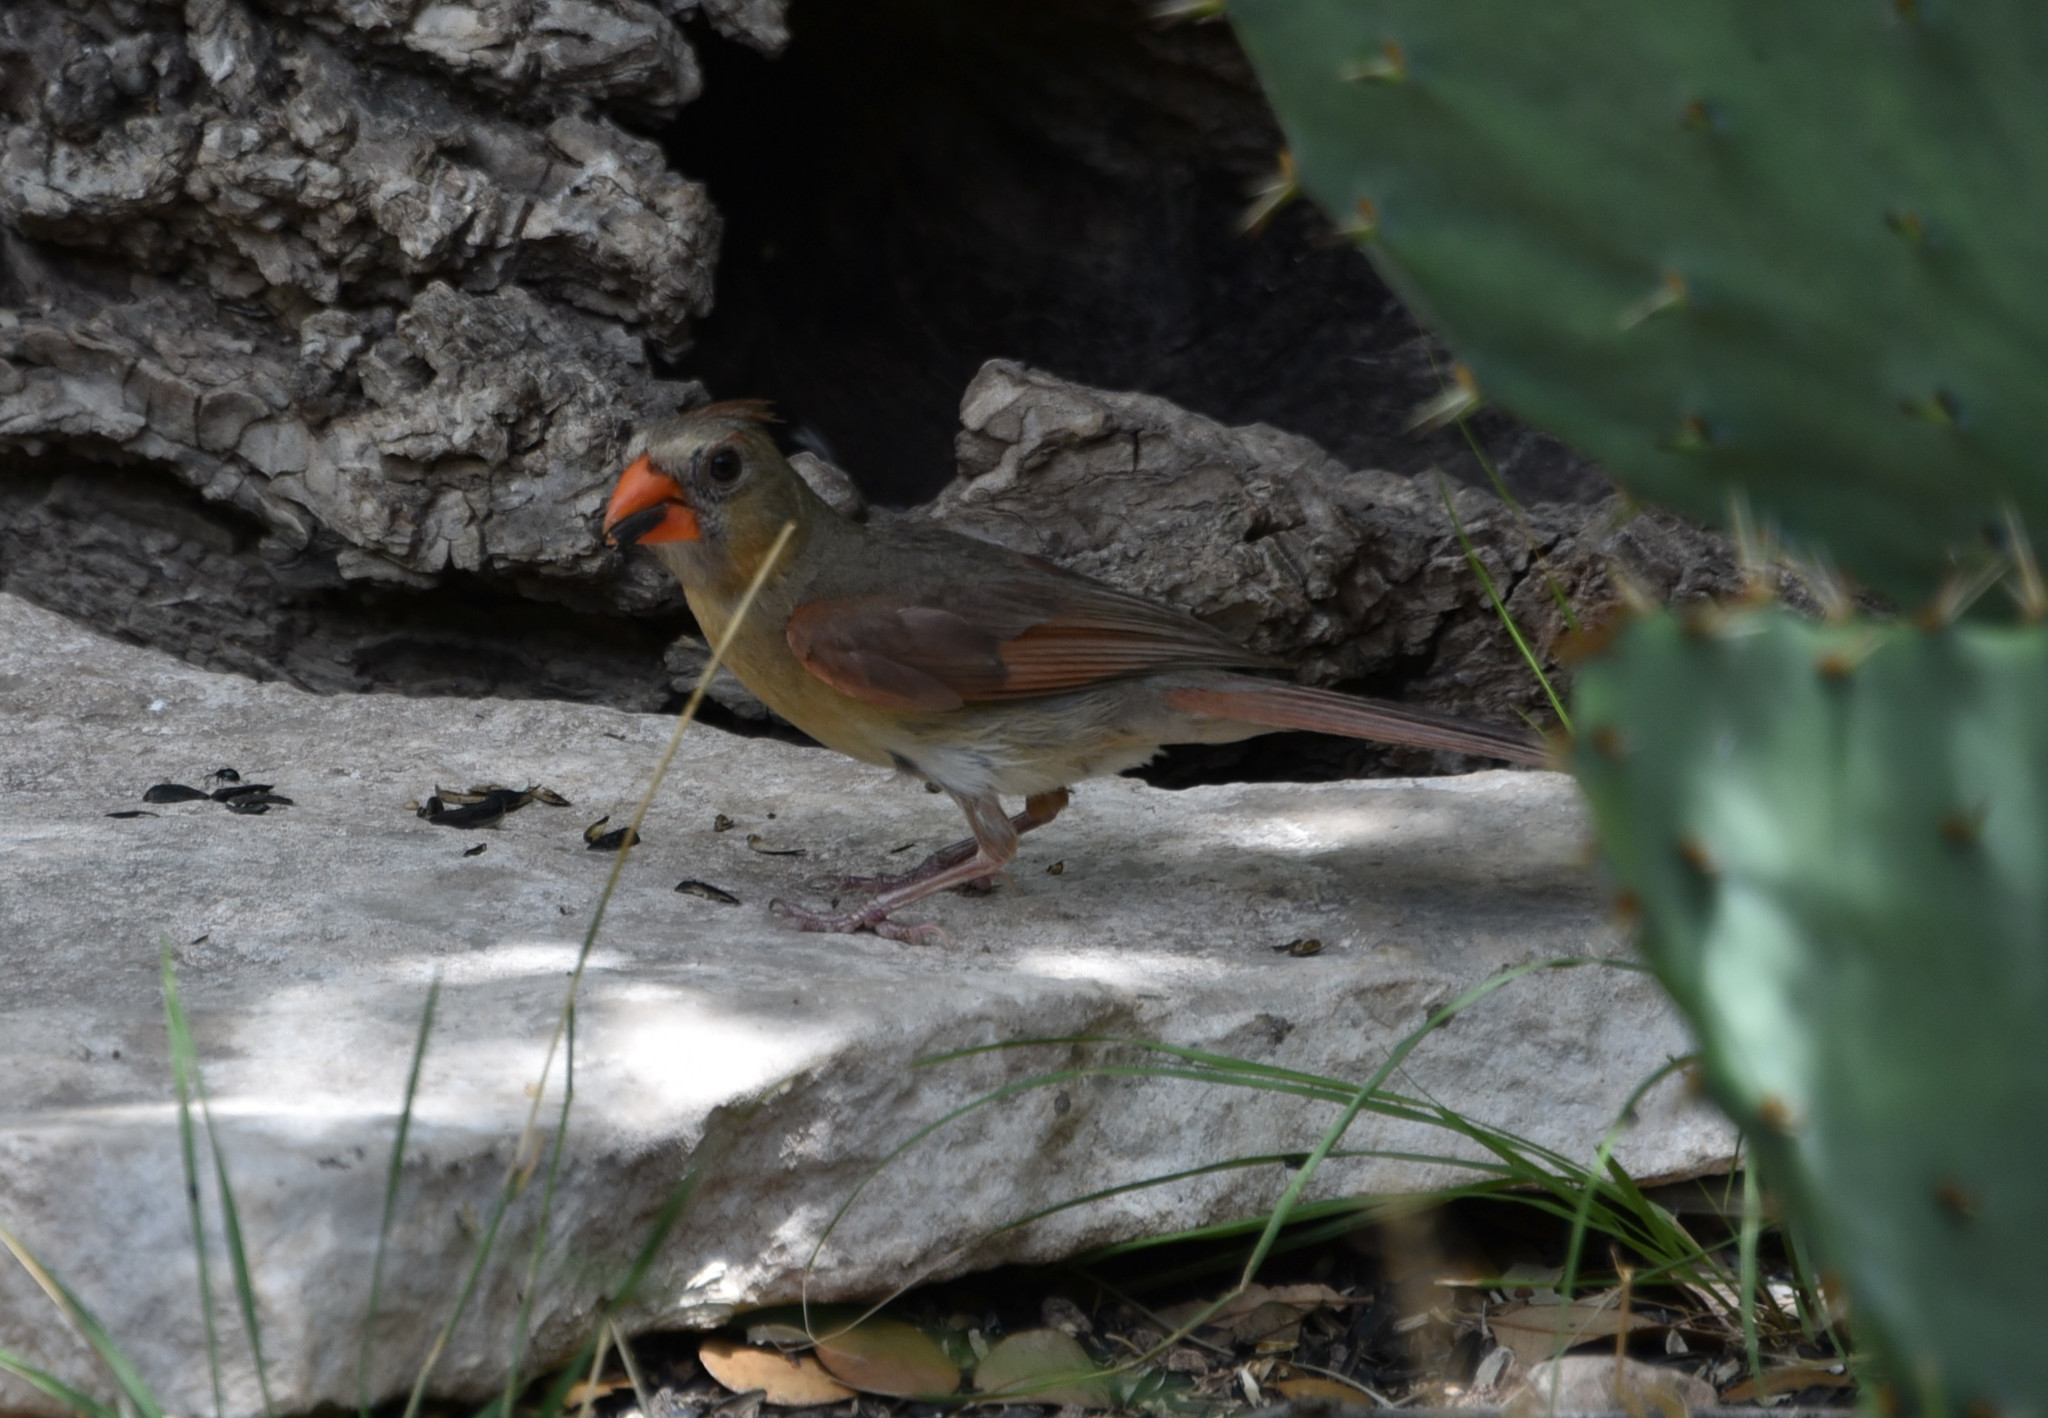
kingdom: Animalia
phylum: Chordata
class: Aves
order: Passeriformes
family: Cardinalidae
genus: Cardinalis
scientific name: Cardinalis cardinalis
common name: Northern cardinal
